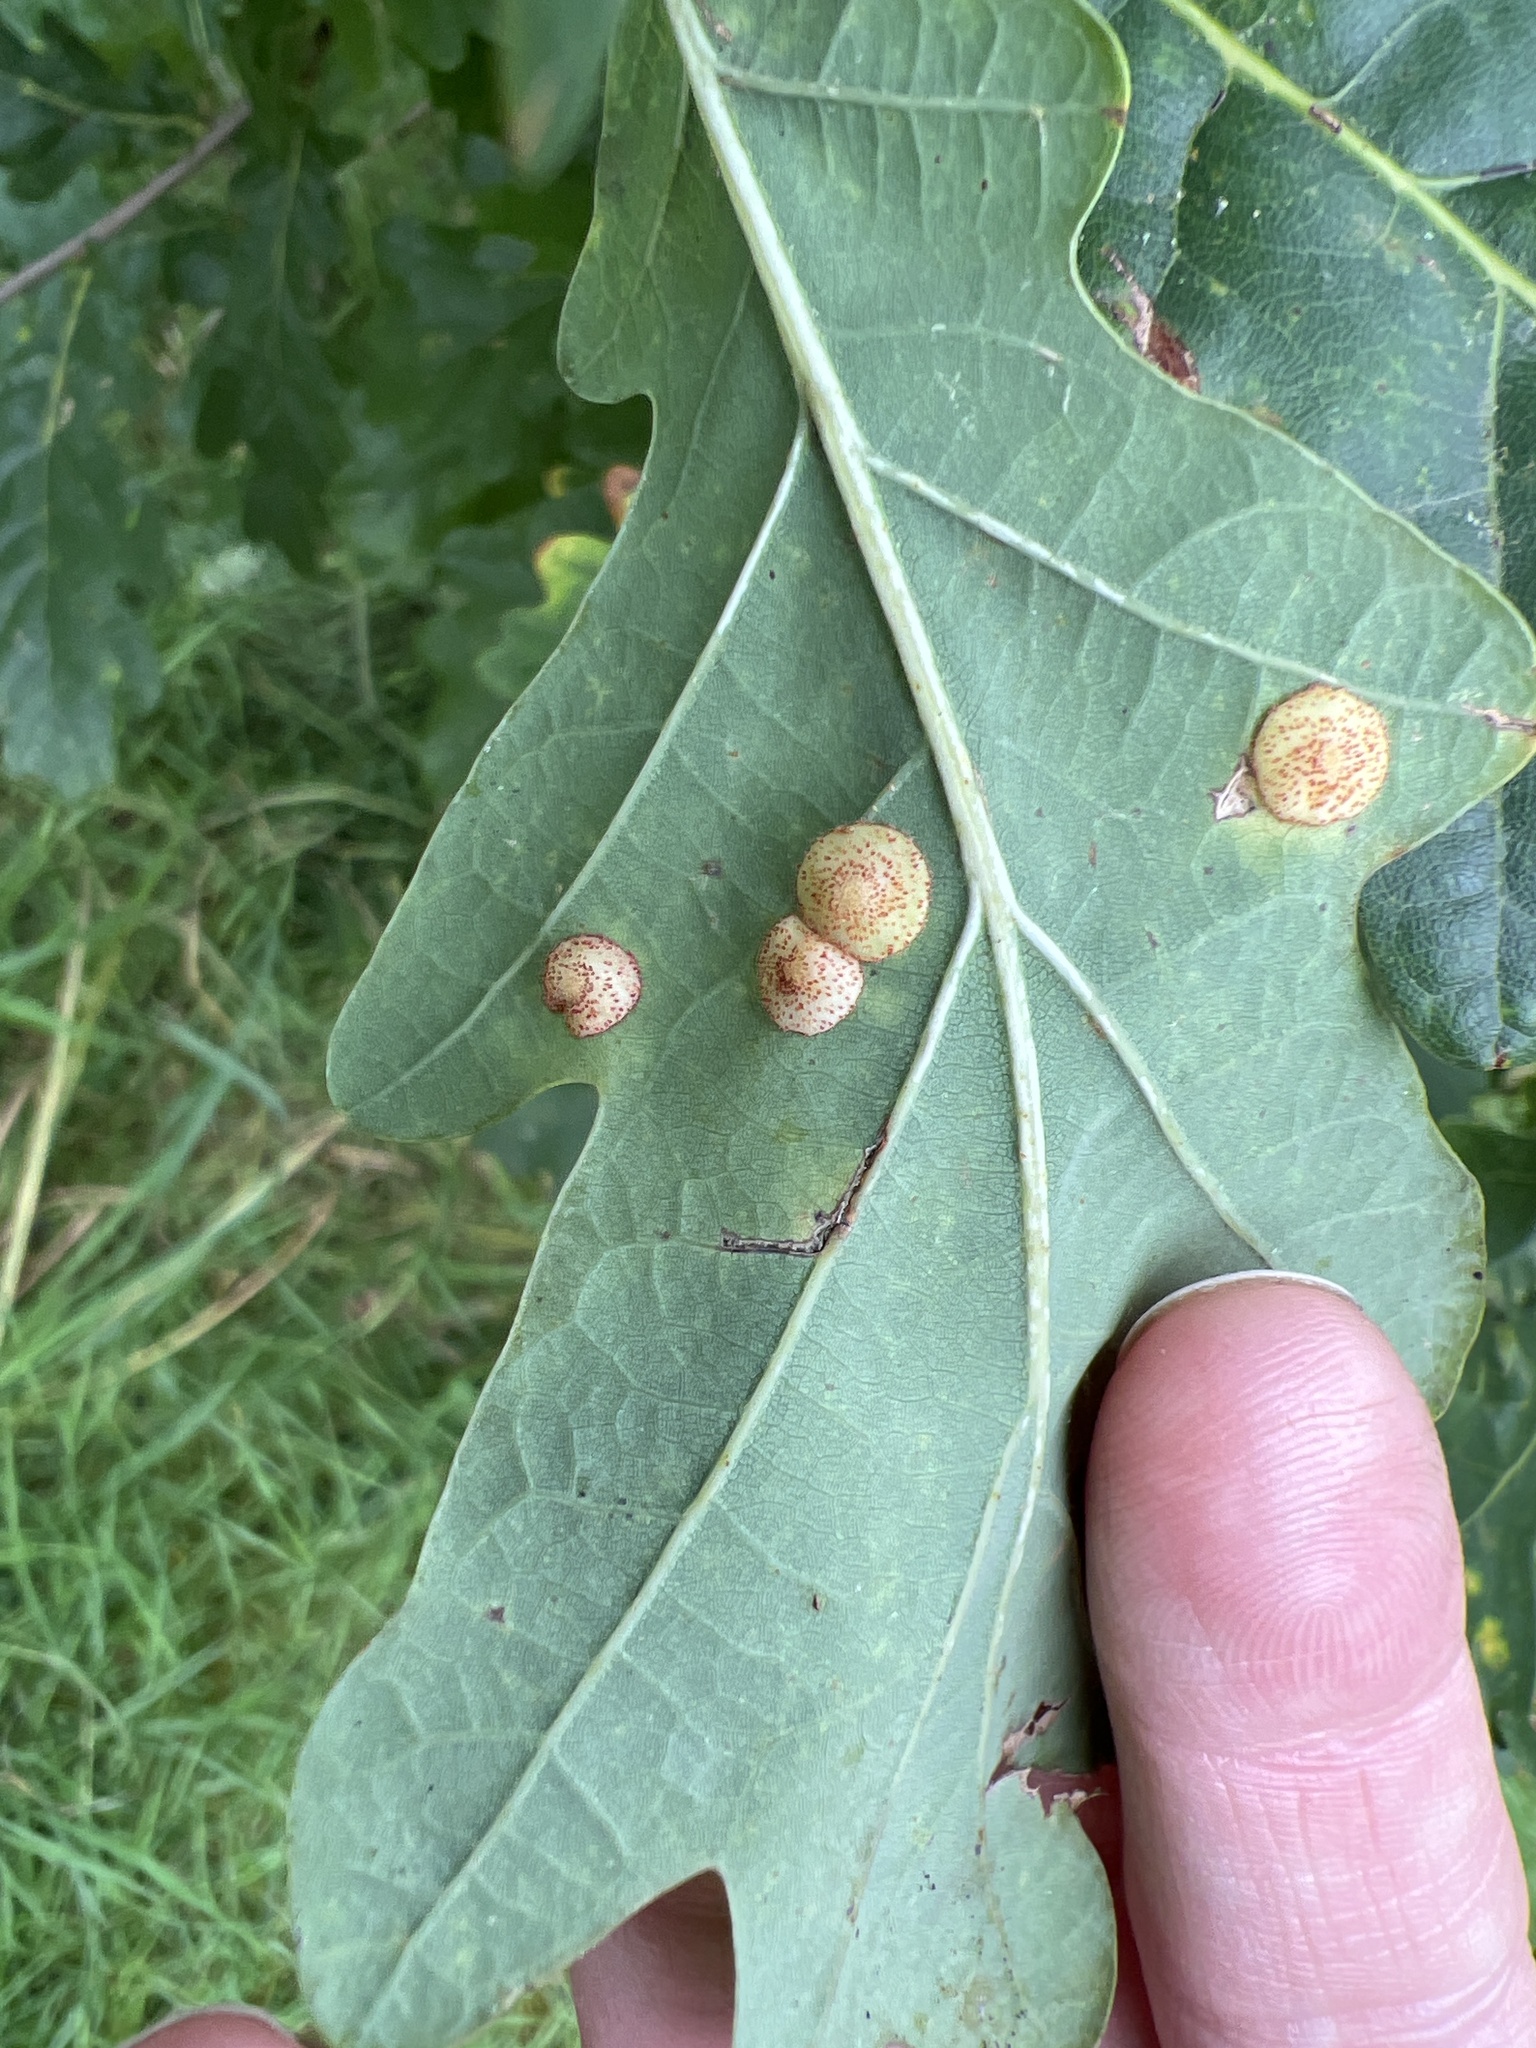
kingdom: Animalia
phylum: Arthropoda
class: Insecta
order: Hymenoptera
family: Cynipidae
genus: Neuroterus
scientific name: Neuroterus quercusbaccarum
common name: Common spangle gall
